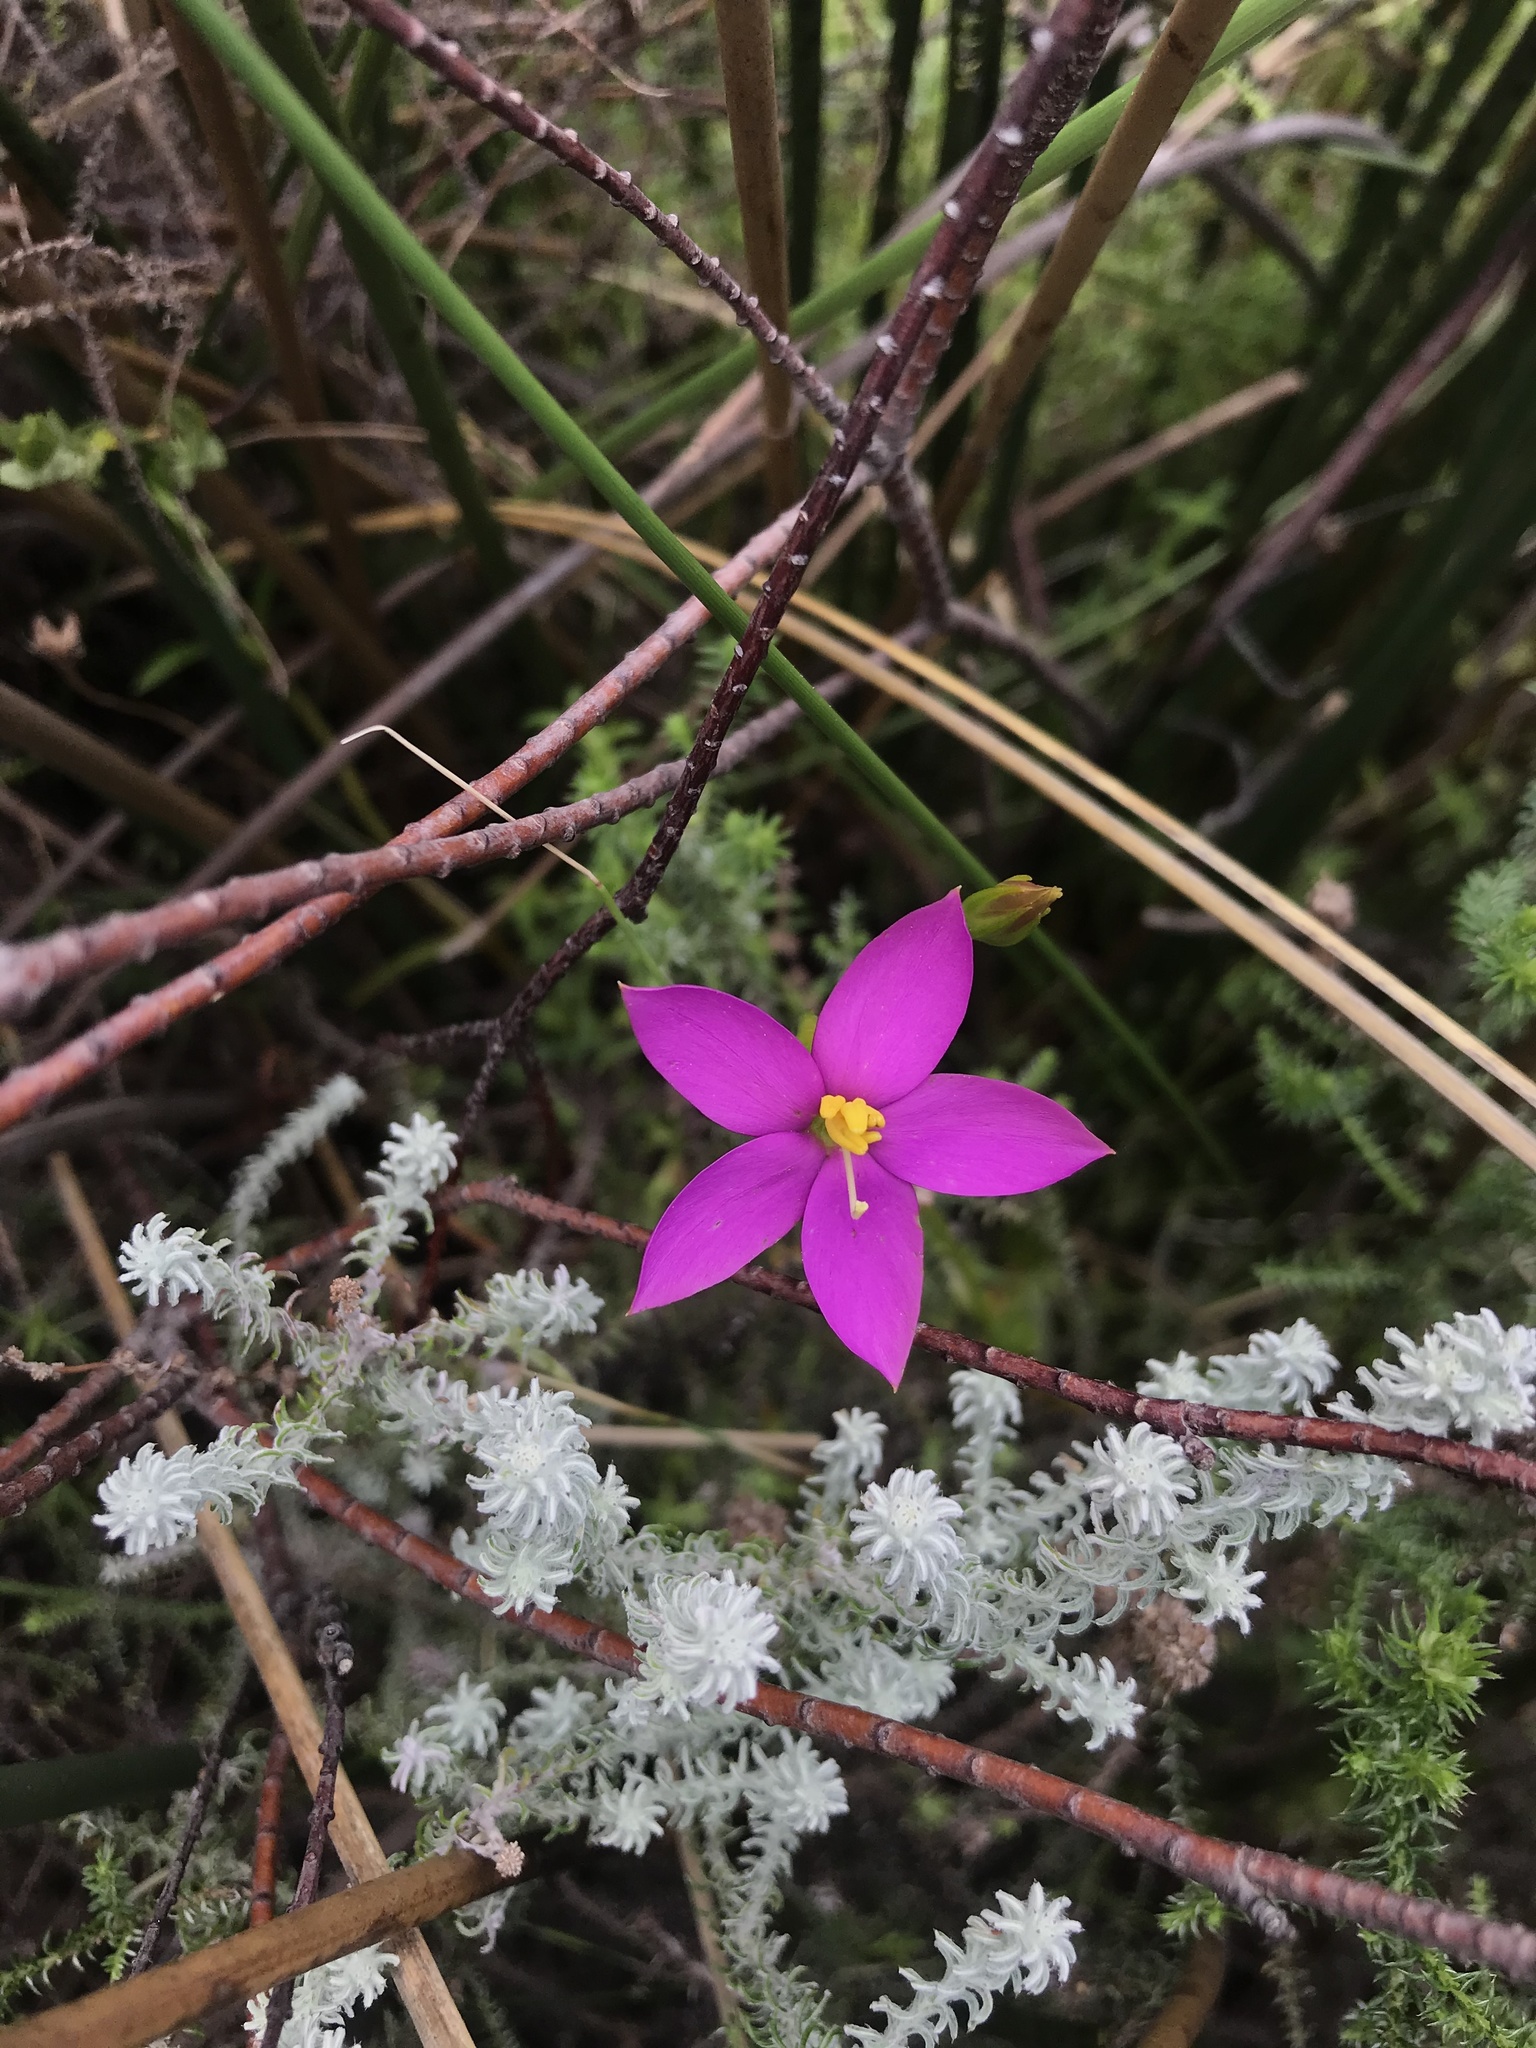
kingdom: Plantae
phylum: Tracheophyta
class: Magnoliopsida
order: Gentianales
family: Gentianaceae
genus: Chironia
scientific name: Chironia jasminoides
